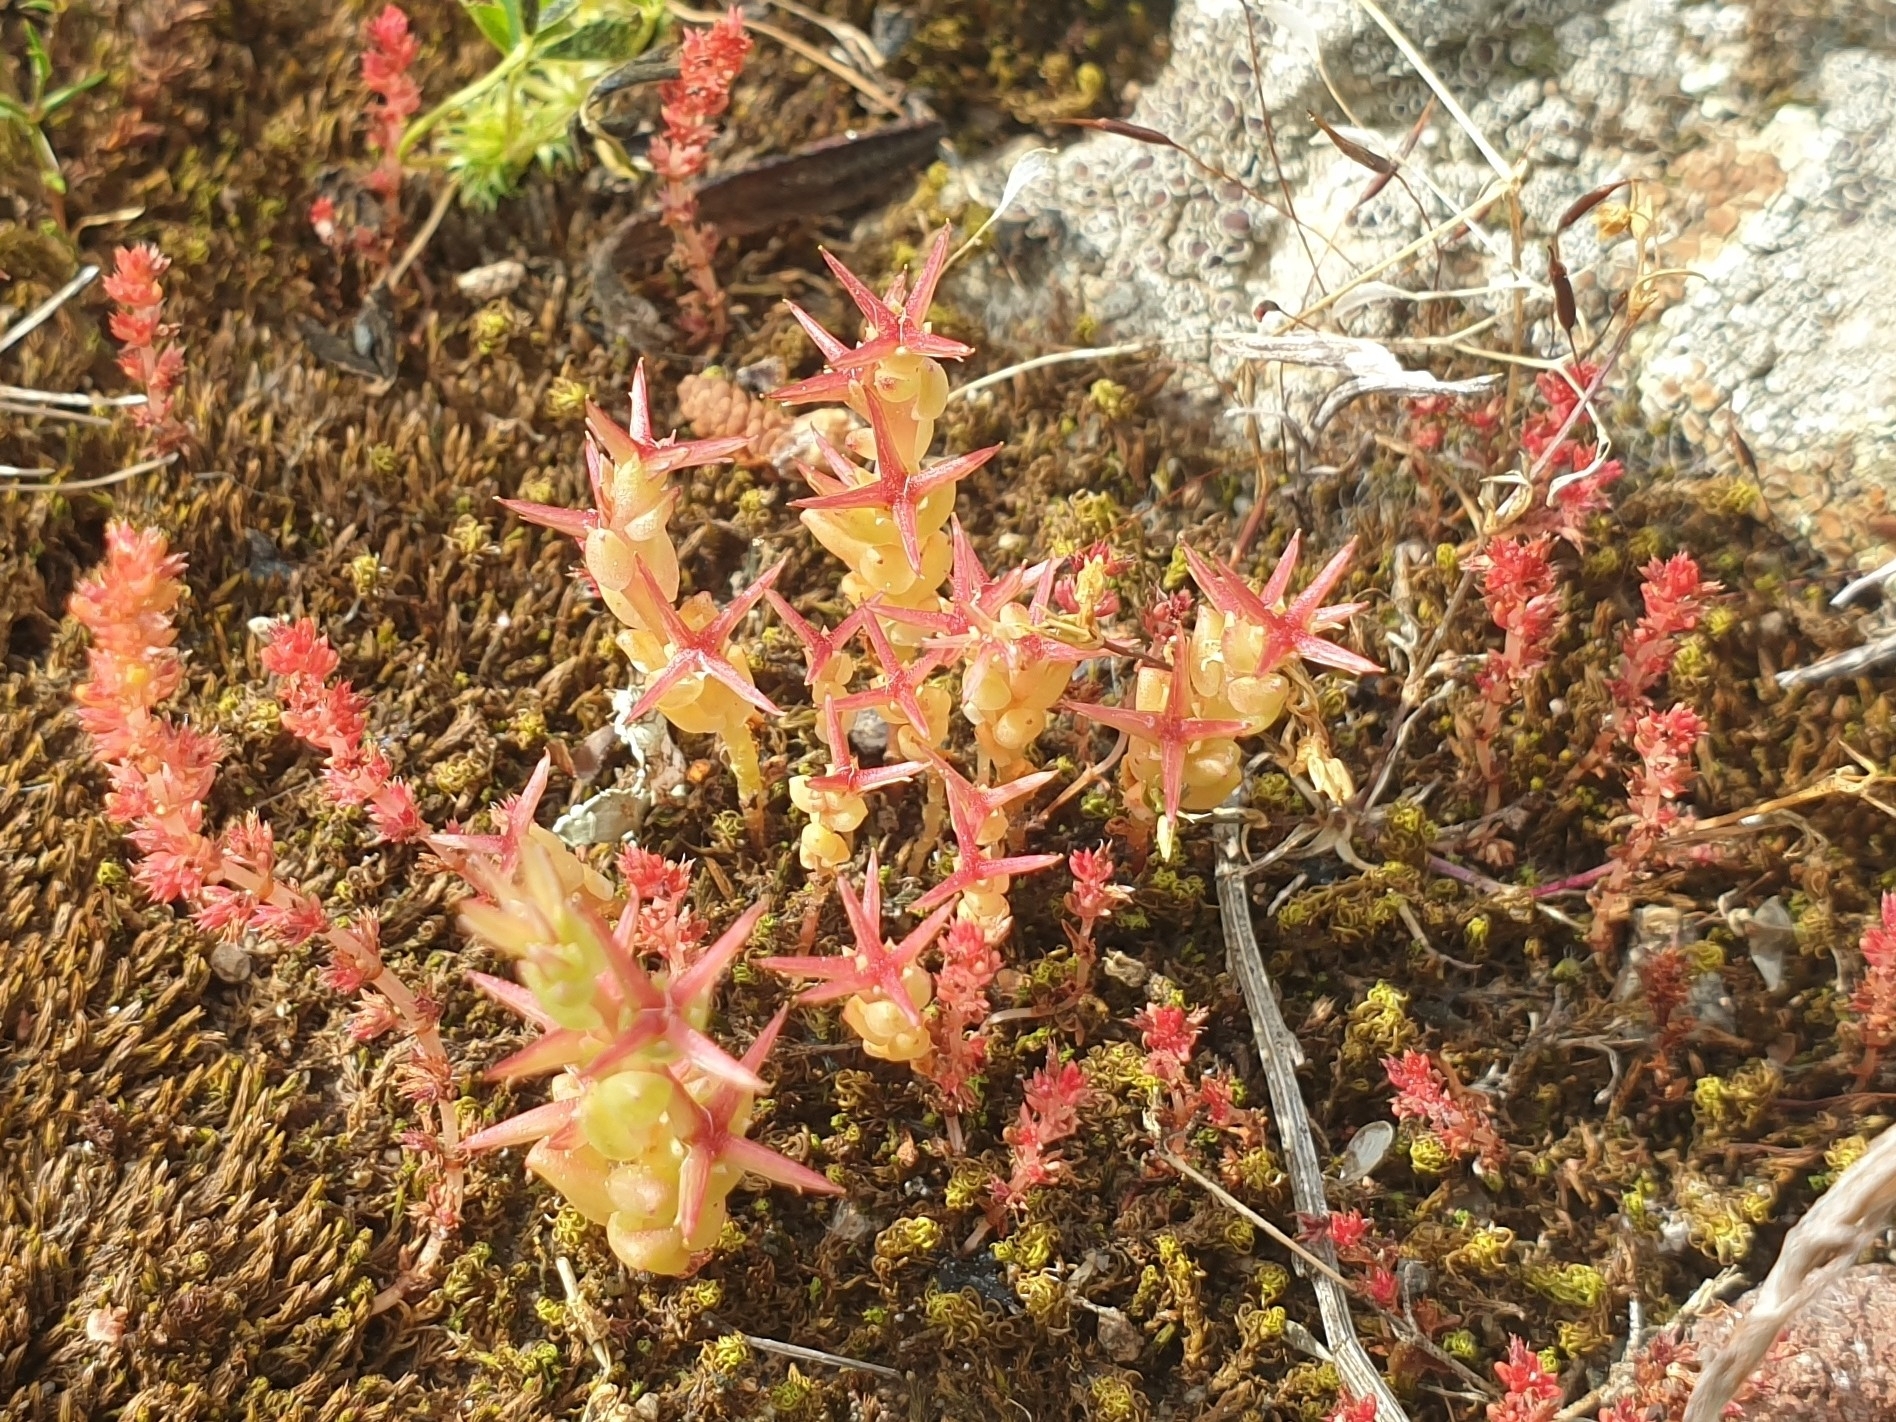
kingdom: Plantae
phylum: Tracheophyta
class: Magnoliopsida
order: Saxifragales
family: Crassulaceae
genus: Sedum
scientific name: Sedum cespitosum
